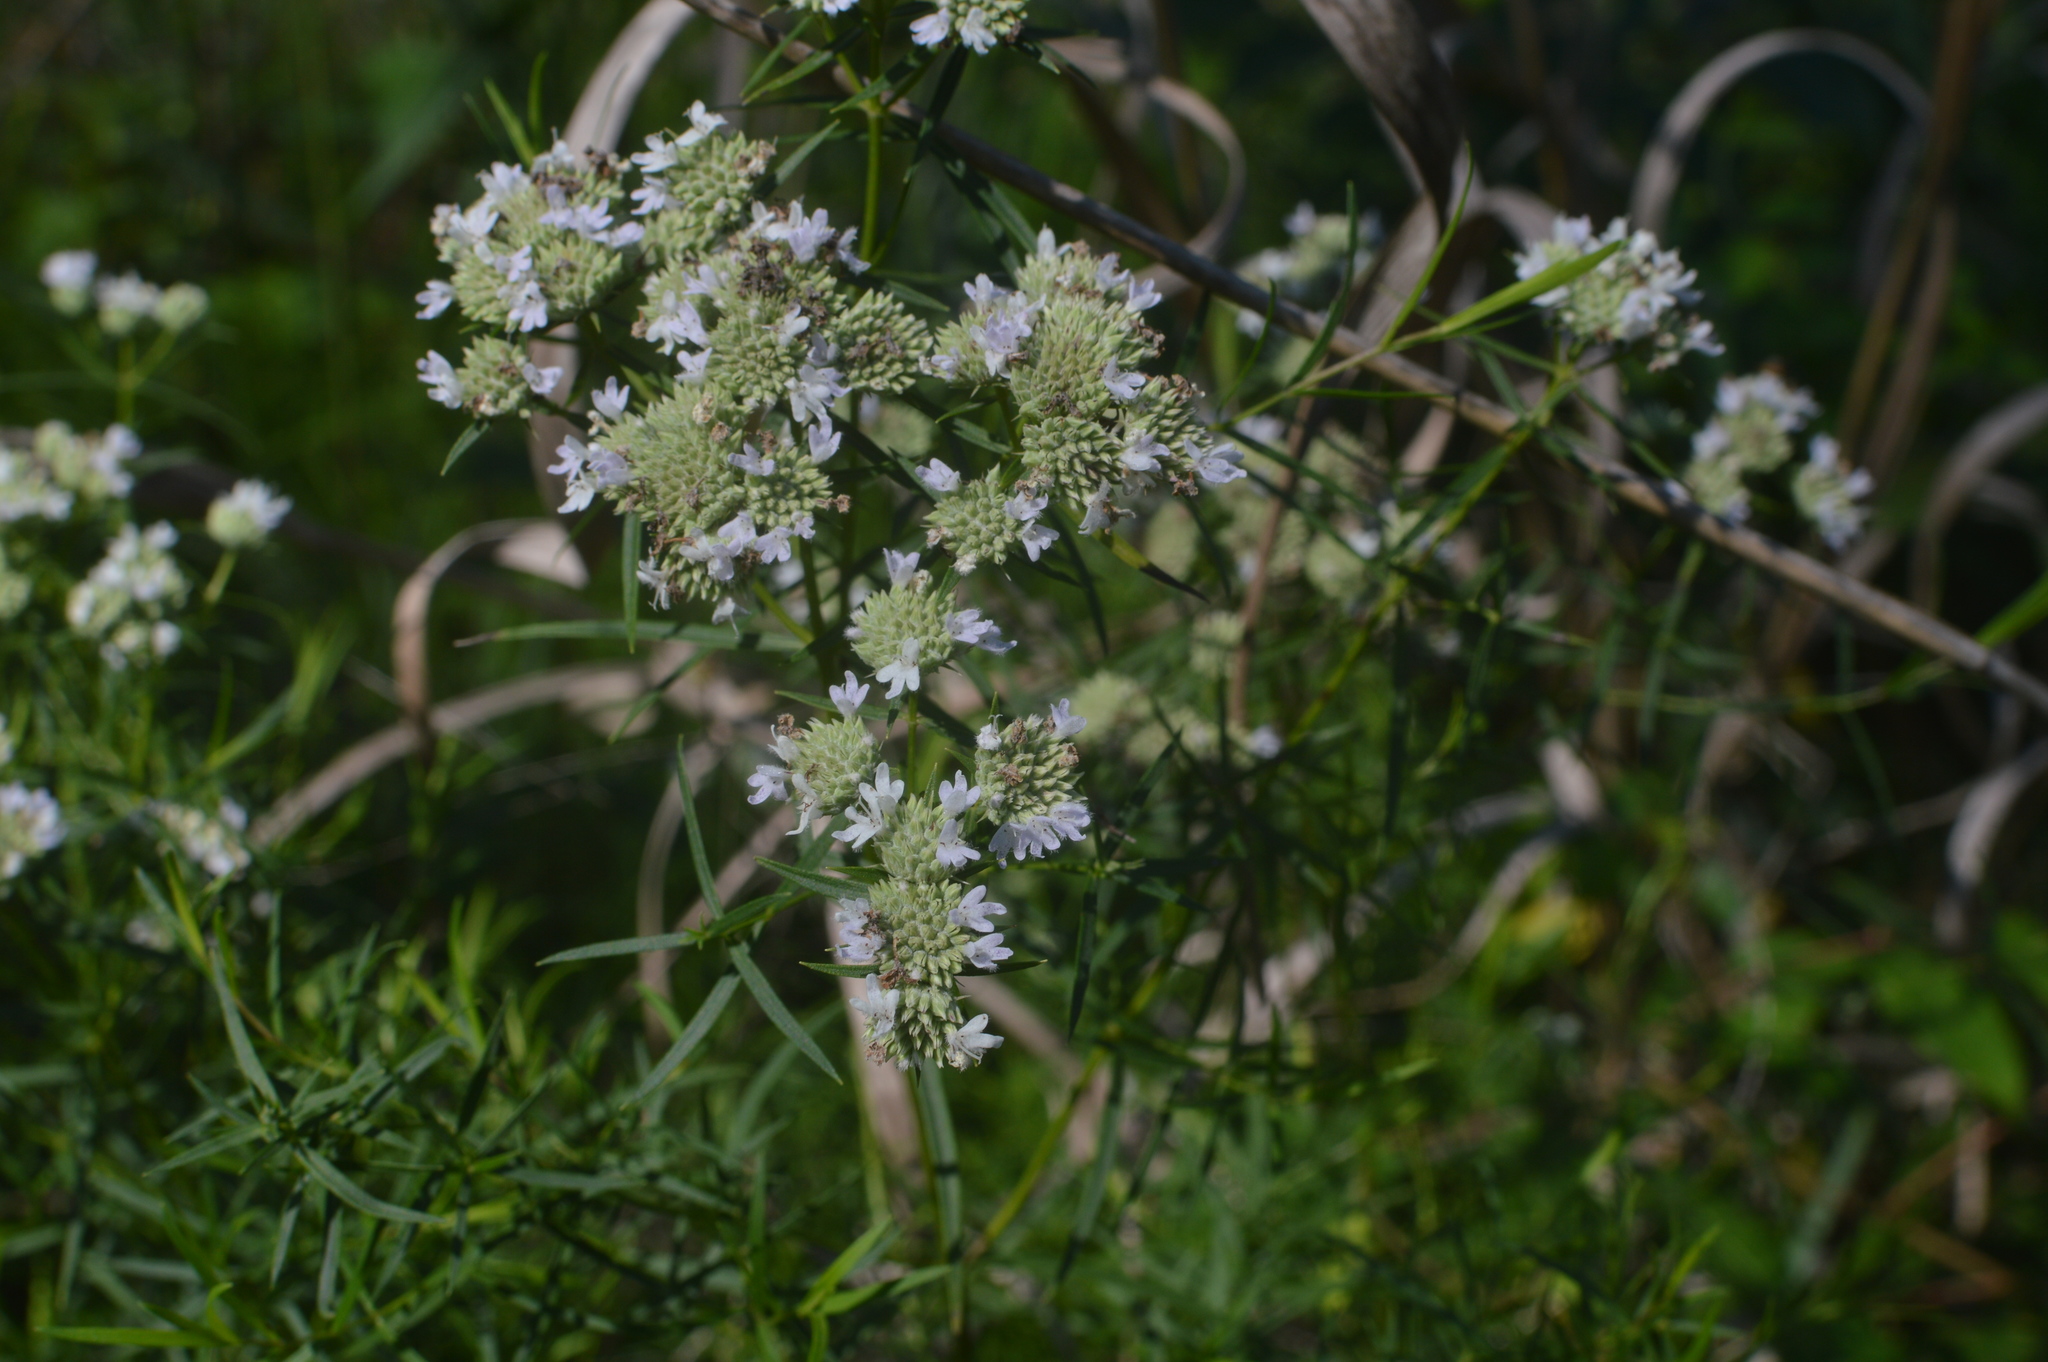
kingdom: Plantae
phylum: Tracheophyta
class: Magnoliopsida
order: Lamiales
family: Lamiaceae
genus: Pycnanthemum
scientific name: Pycnanthemum tenuifolium
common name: Narrow-leaf mountain-mint
